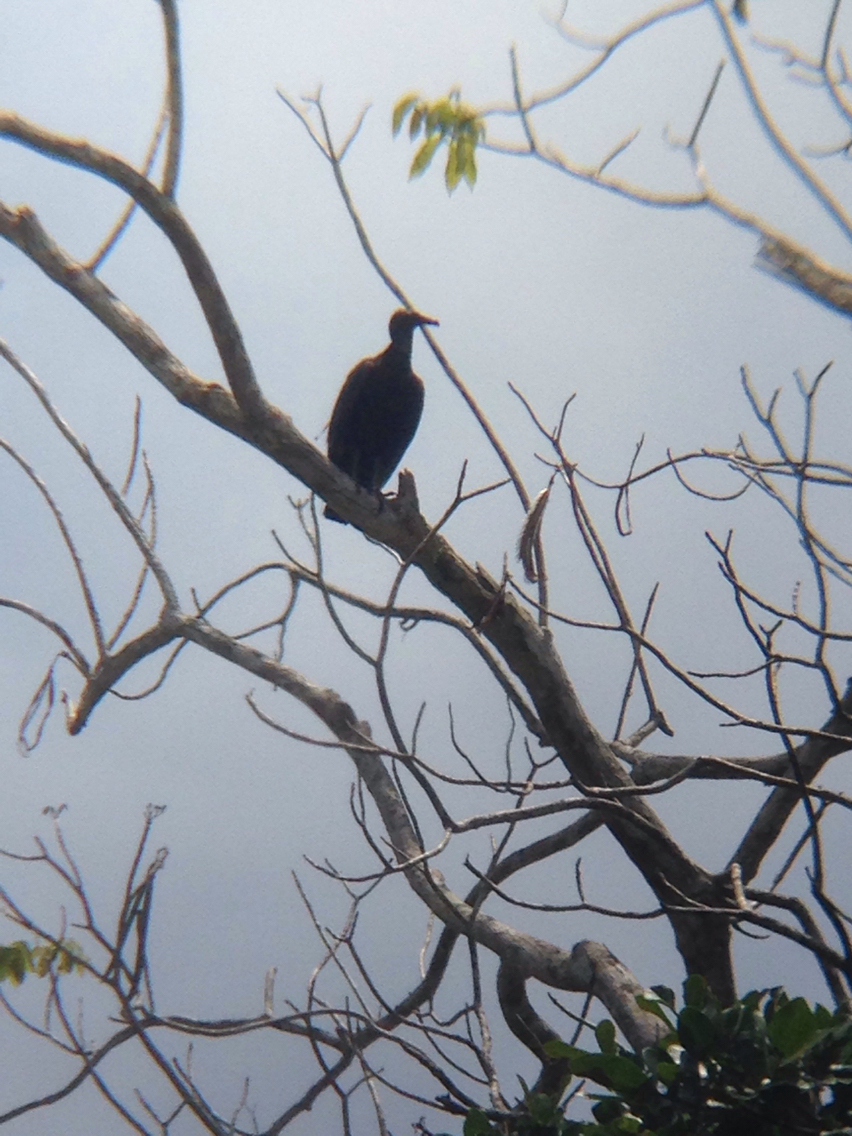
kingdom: Animalia
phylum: Chordata
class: Aves
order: Accipitriformes
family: Cathartidae
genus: Coragyps
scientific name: Coragyps atratus
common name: Black vulture
